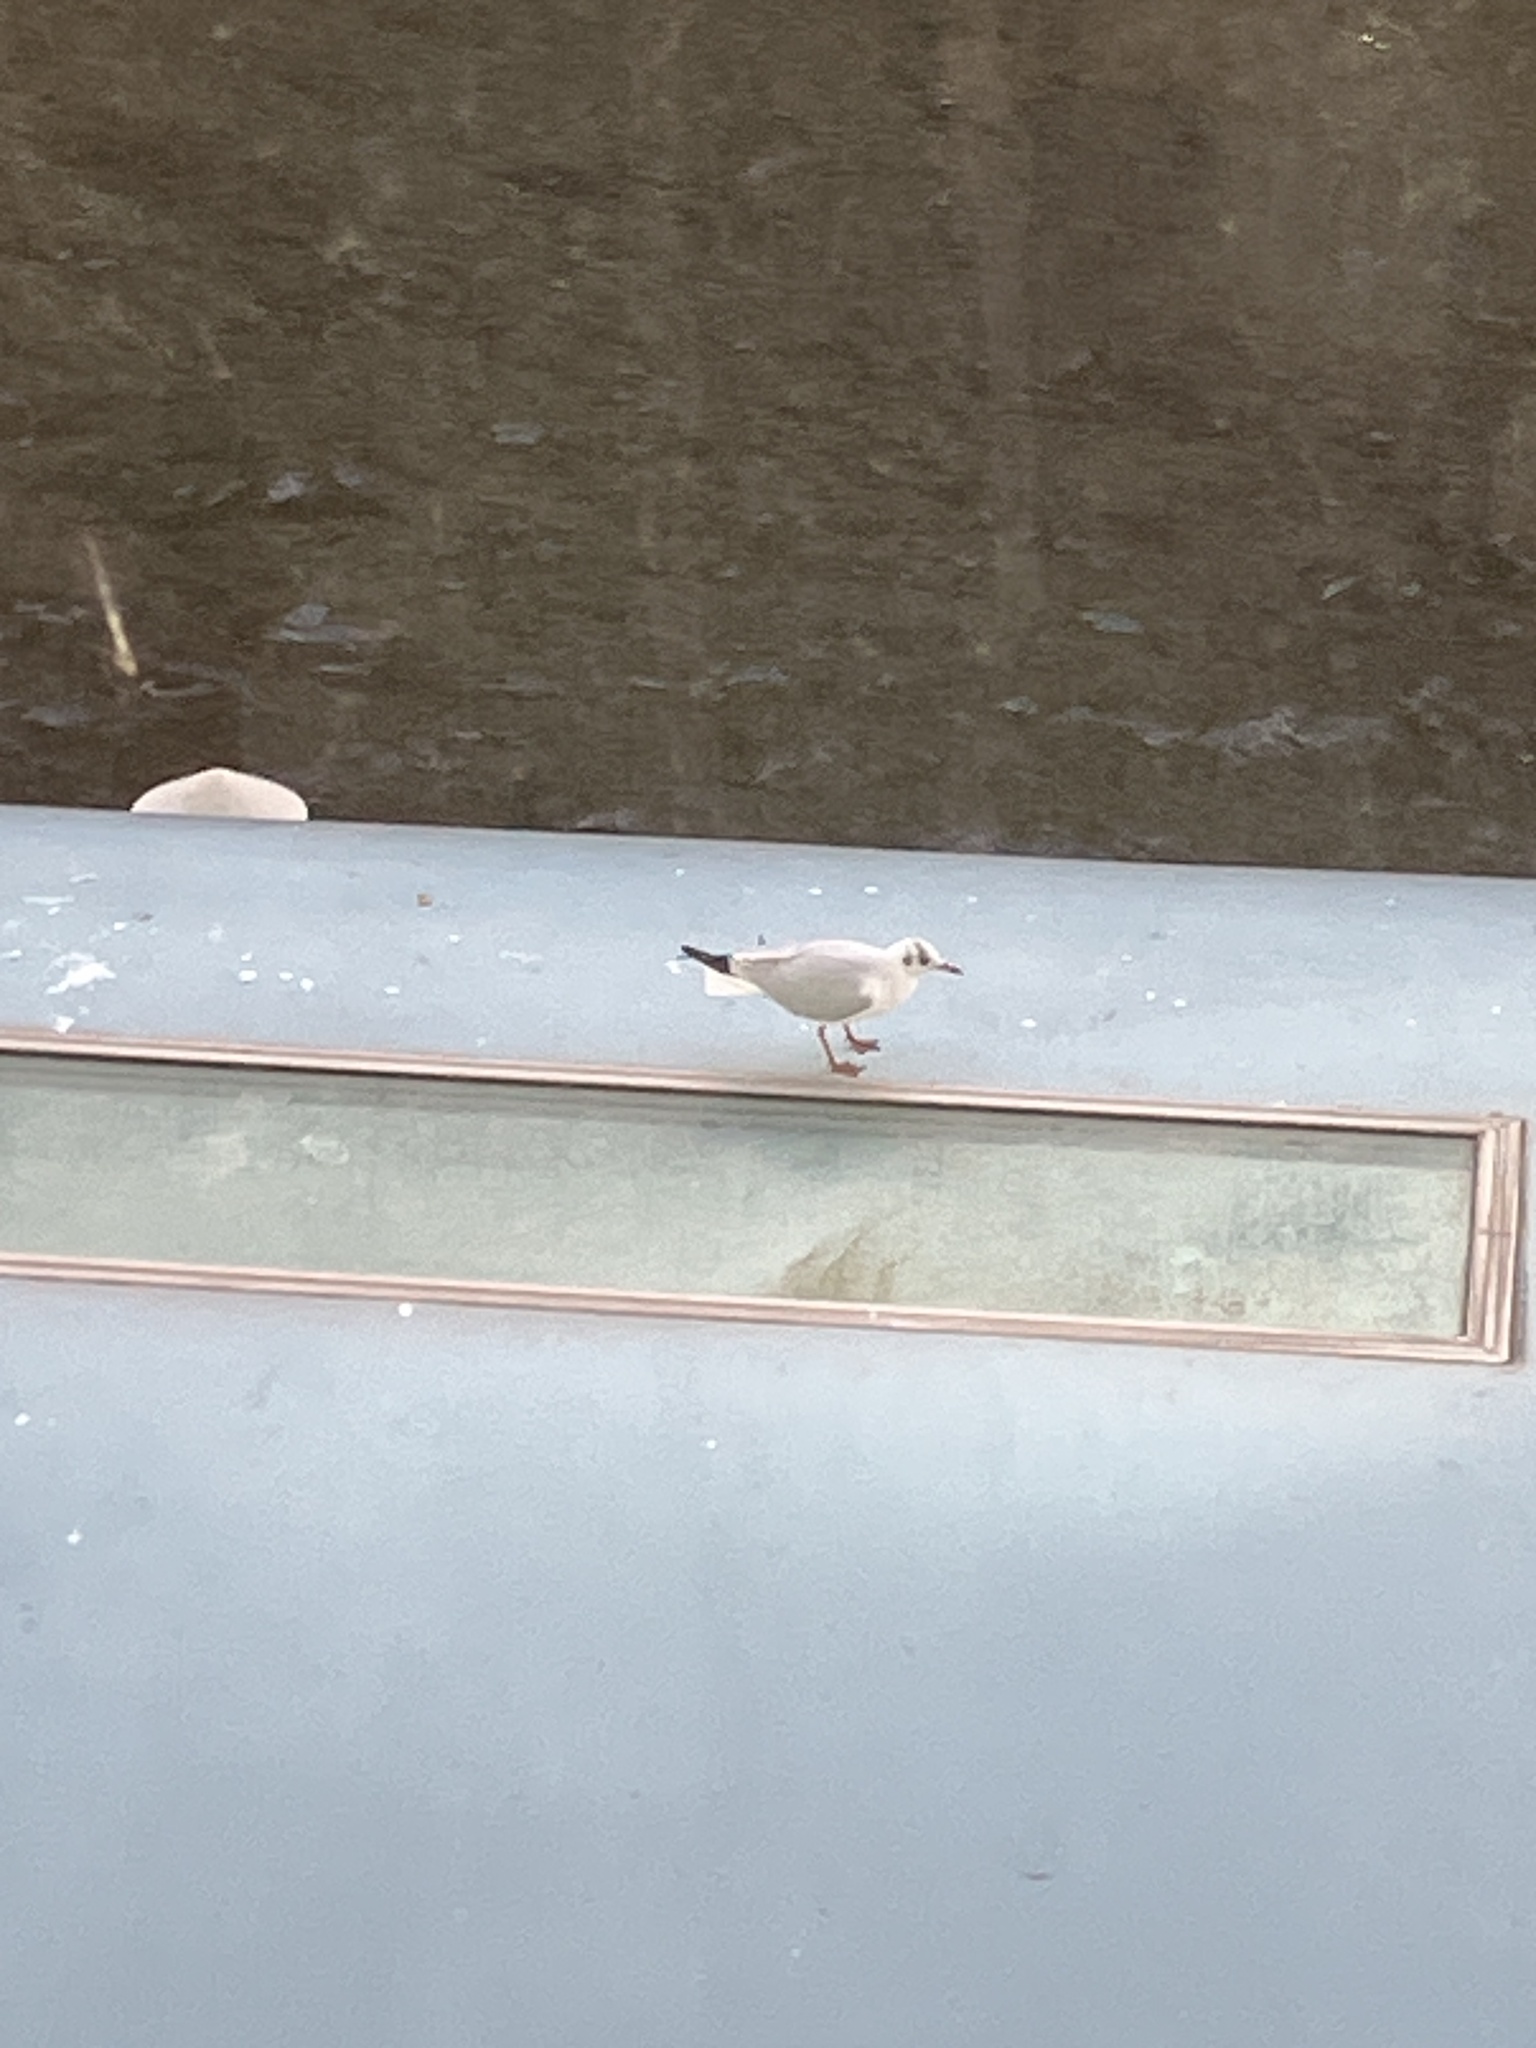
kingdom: Animalia
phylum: Chordata
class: Aves
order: Charadriiformes
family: Laridae
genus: Chroicocephalus
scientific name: Chroicocephalus ridibundus
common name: Black-headed gull
